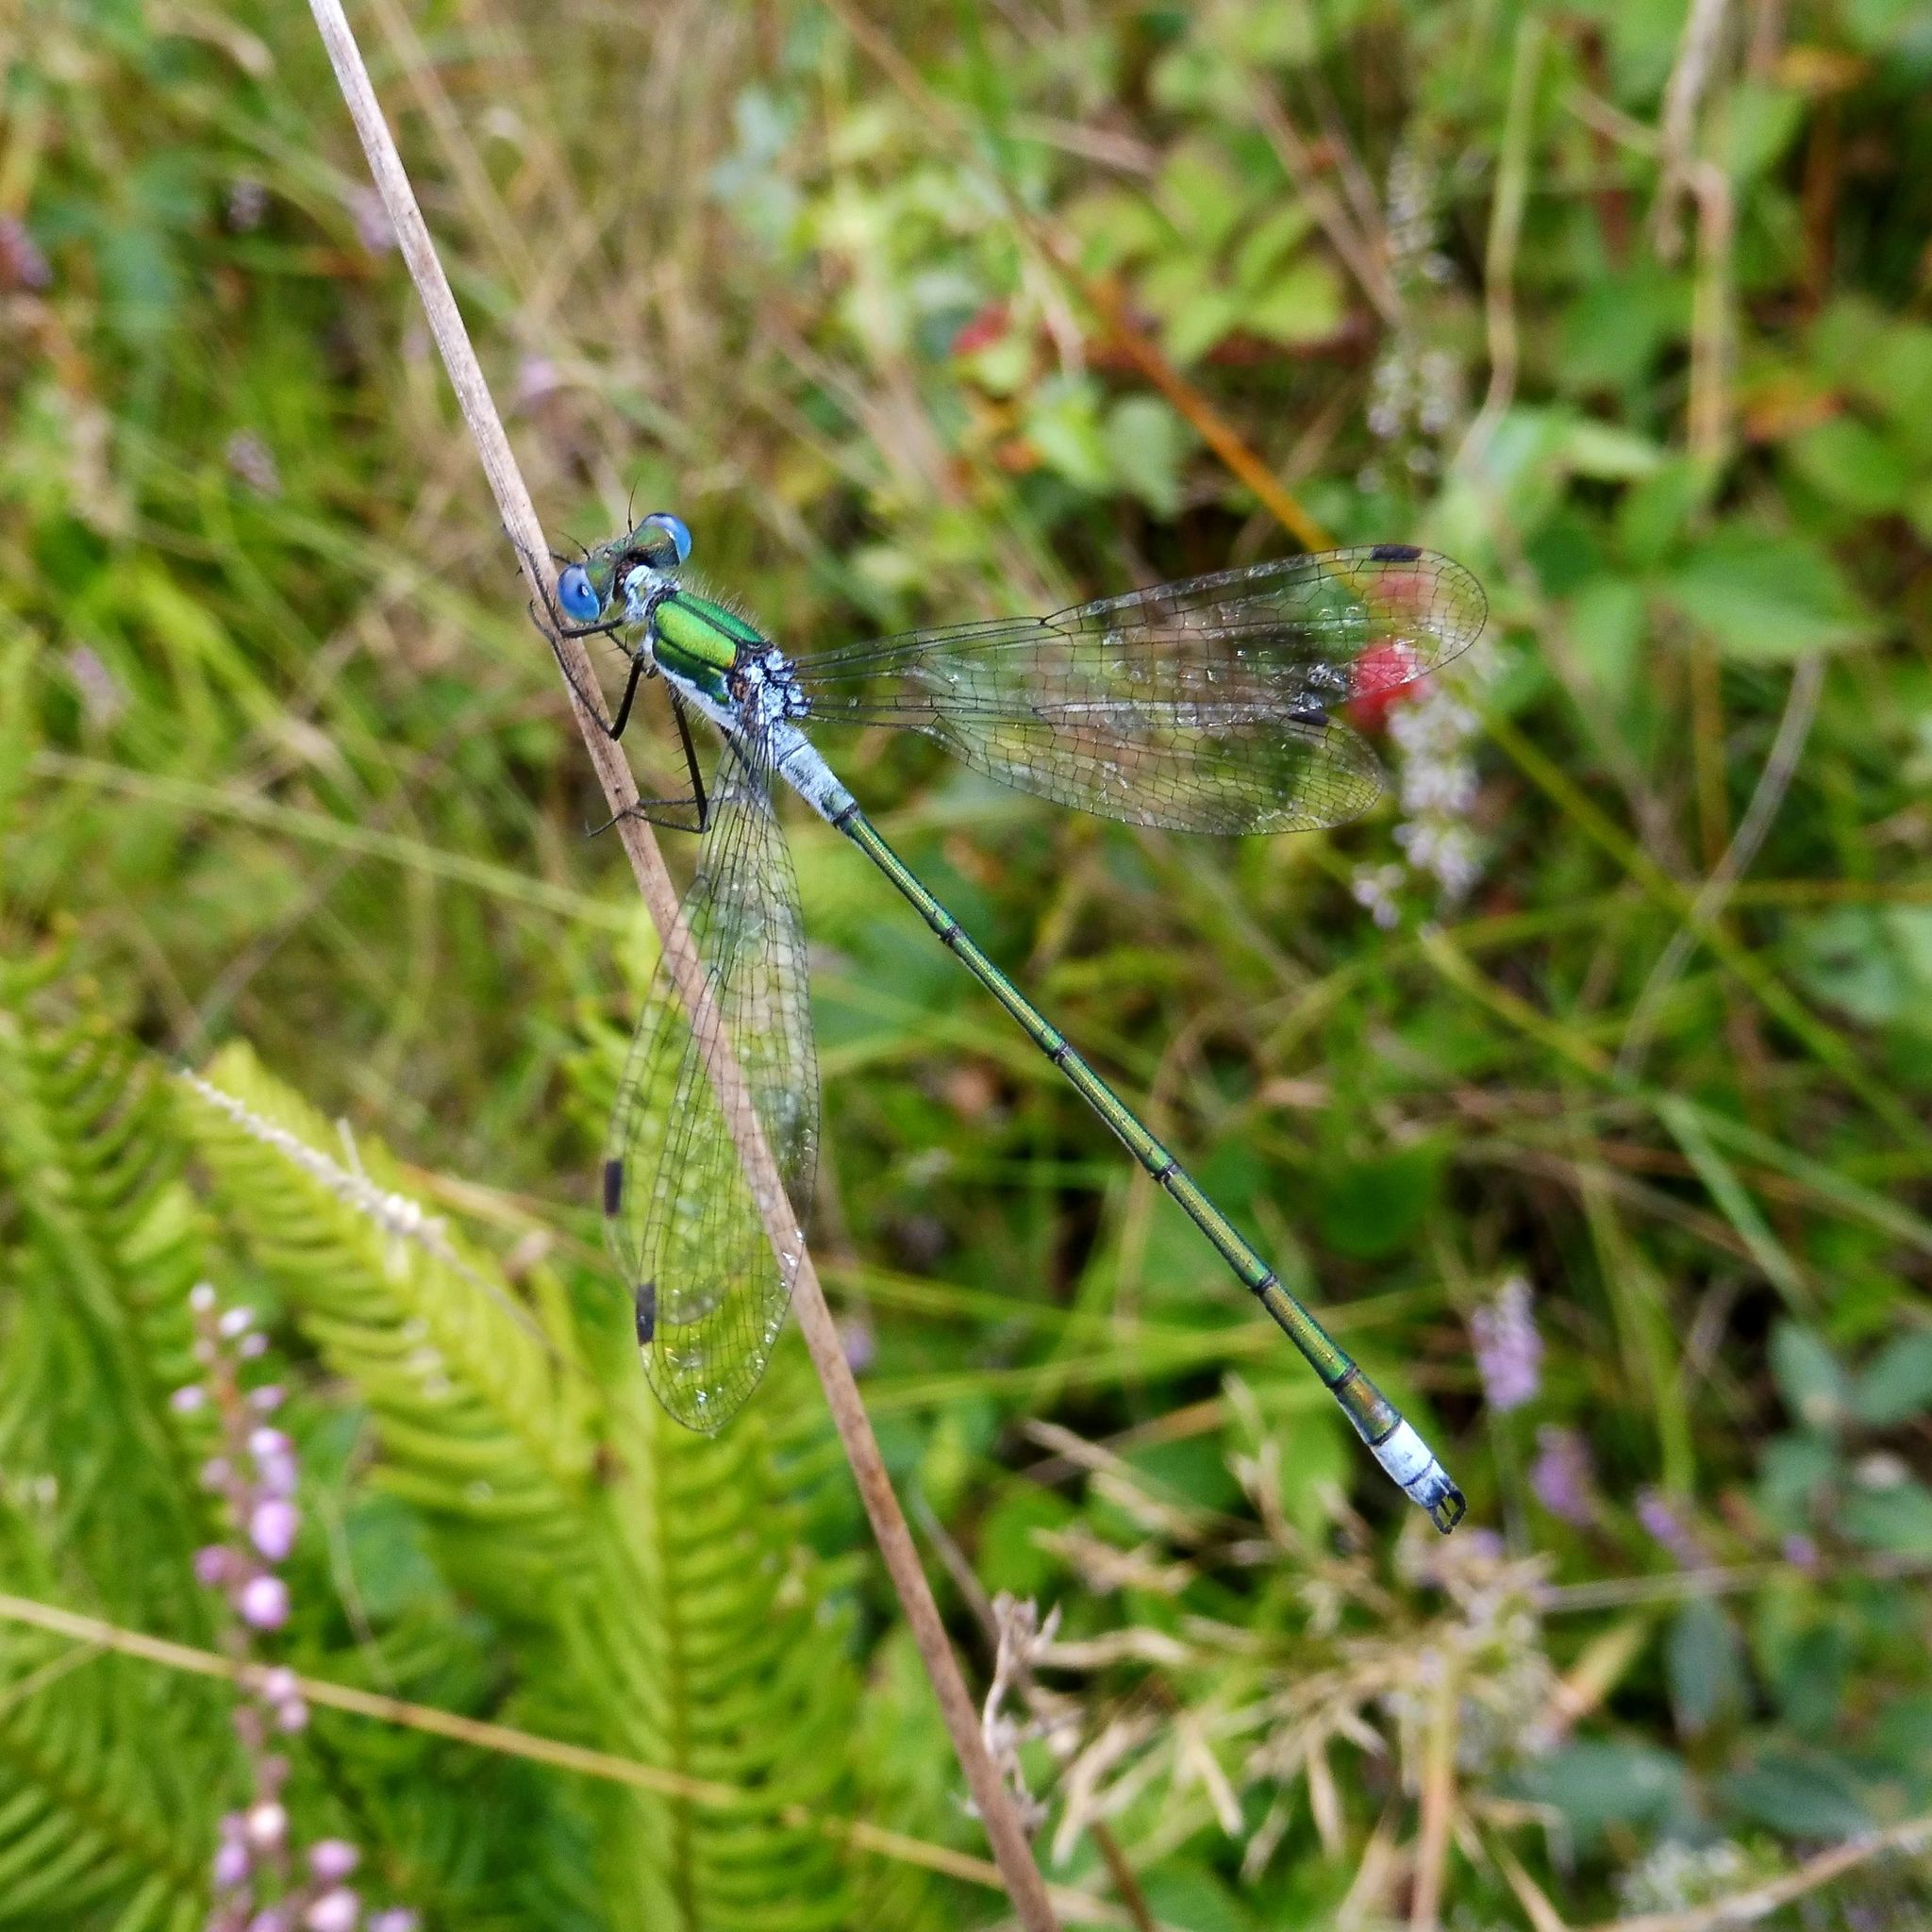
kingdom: Animalia
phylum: Arthropoda
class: Insecta
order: Odonata
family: Lestidae
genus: Lestes
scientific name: Lestes sponsa
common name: Common spreadwing
